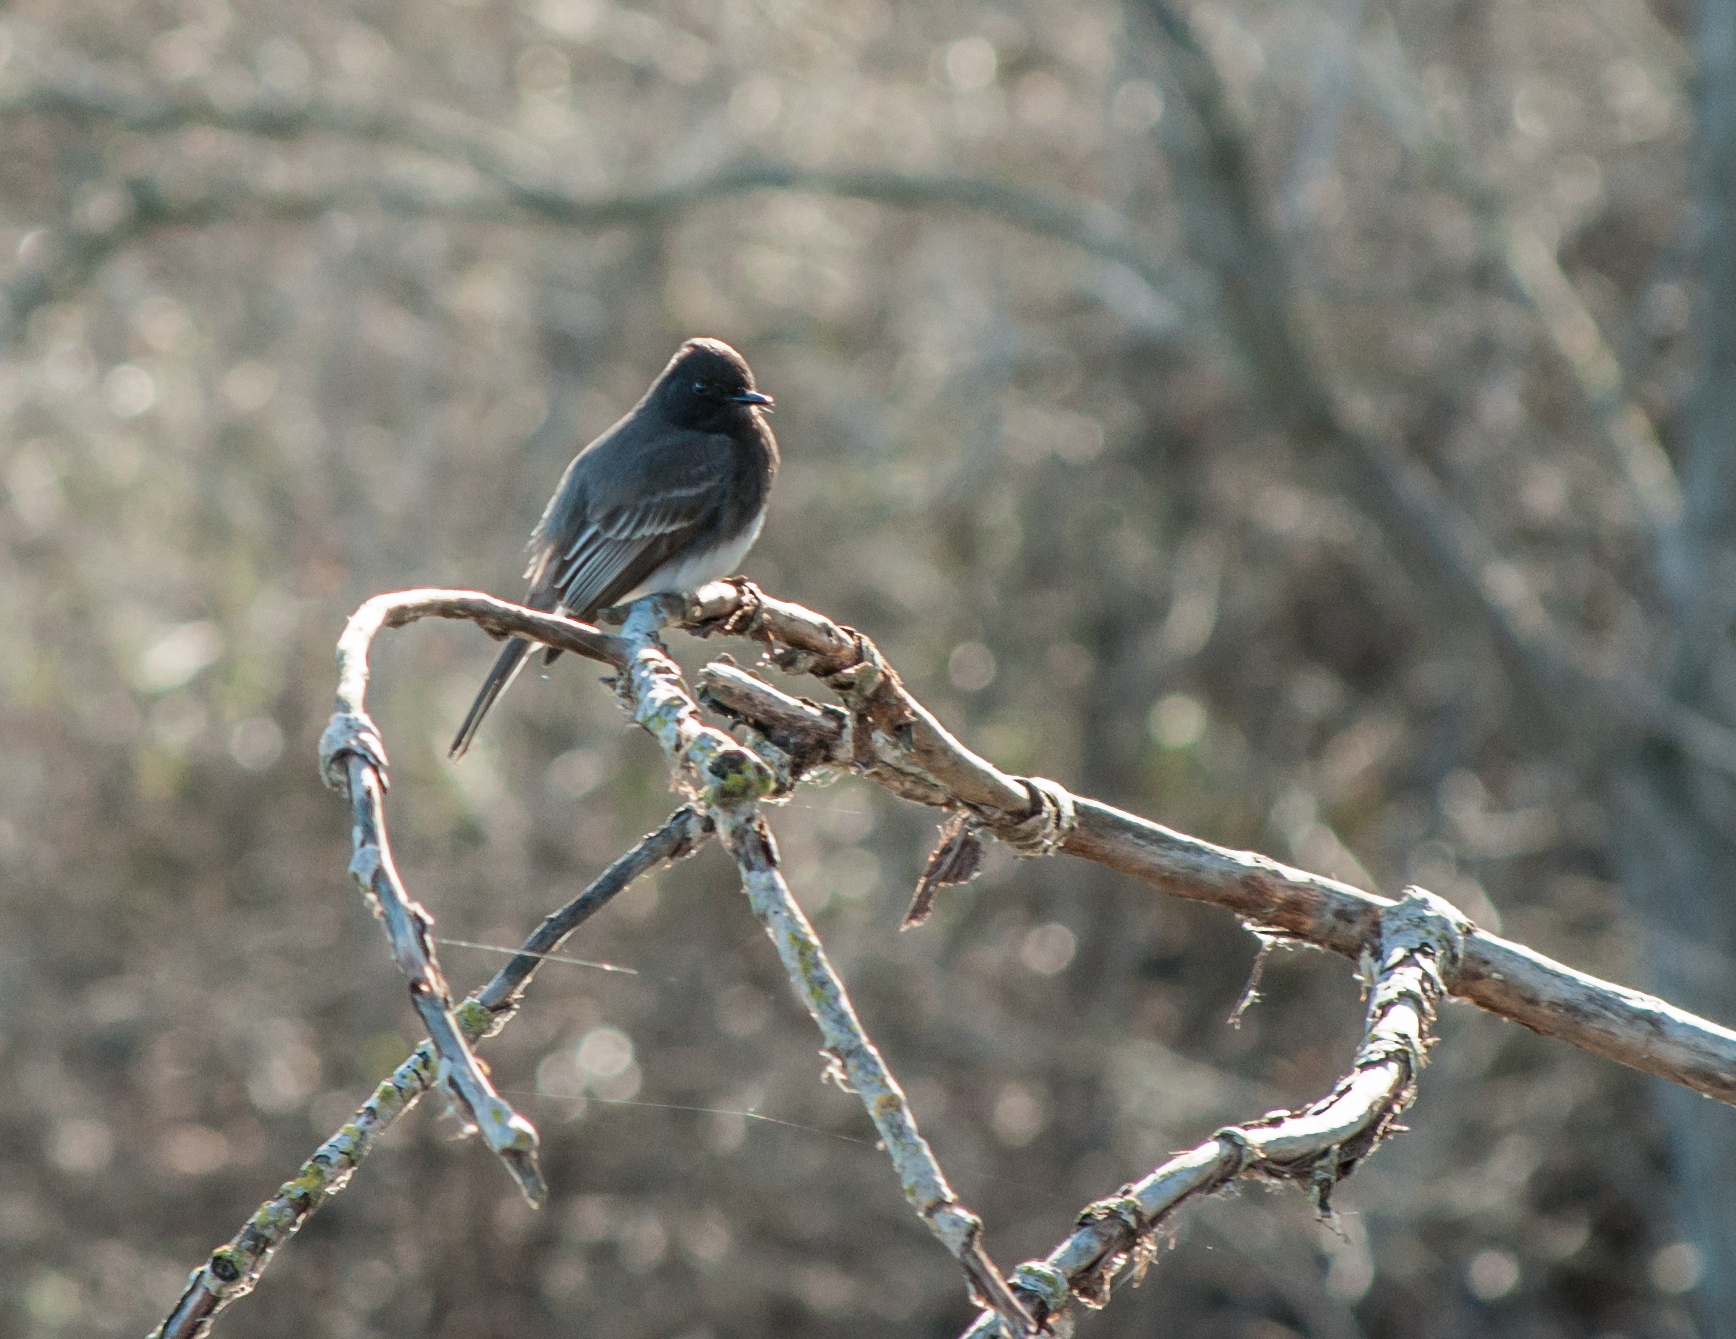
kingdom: Animalia
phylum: Chordata
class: Aves
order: Passeriformes
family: Tyrannidae
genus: Sayornis
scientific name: Sayornis nigricans
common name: Black phoebe
